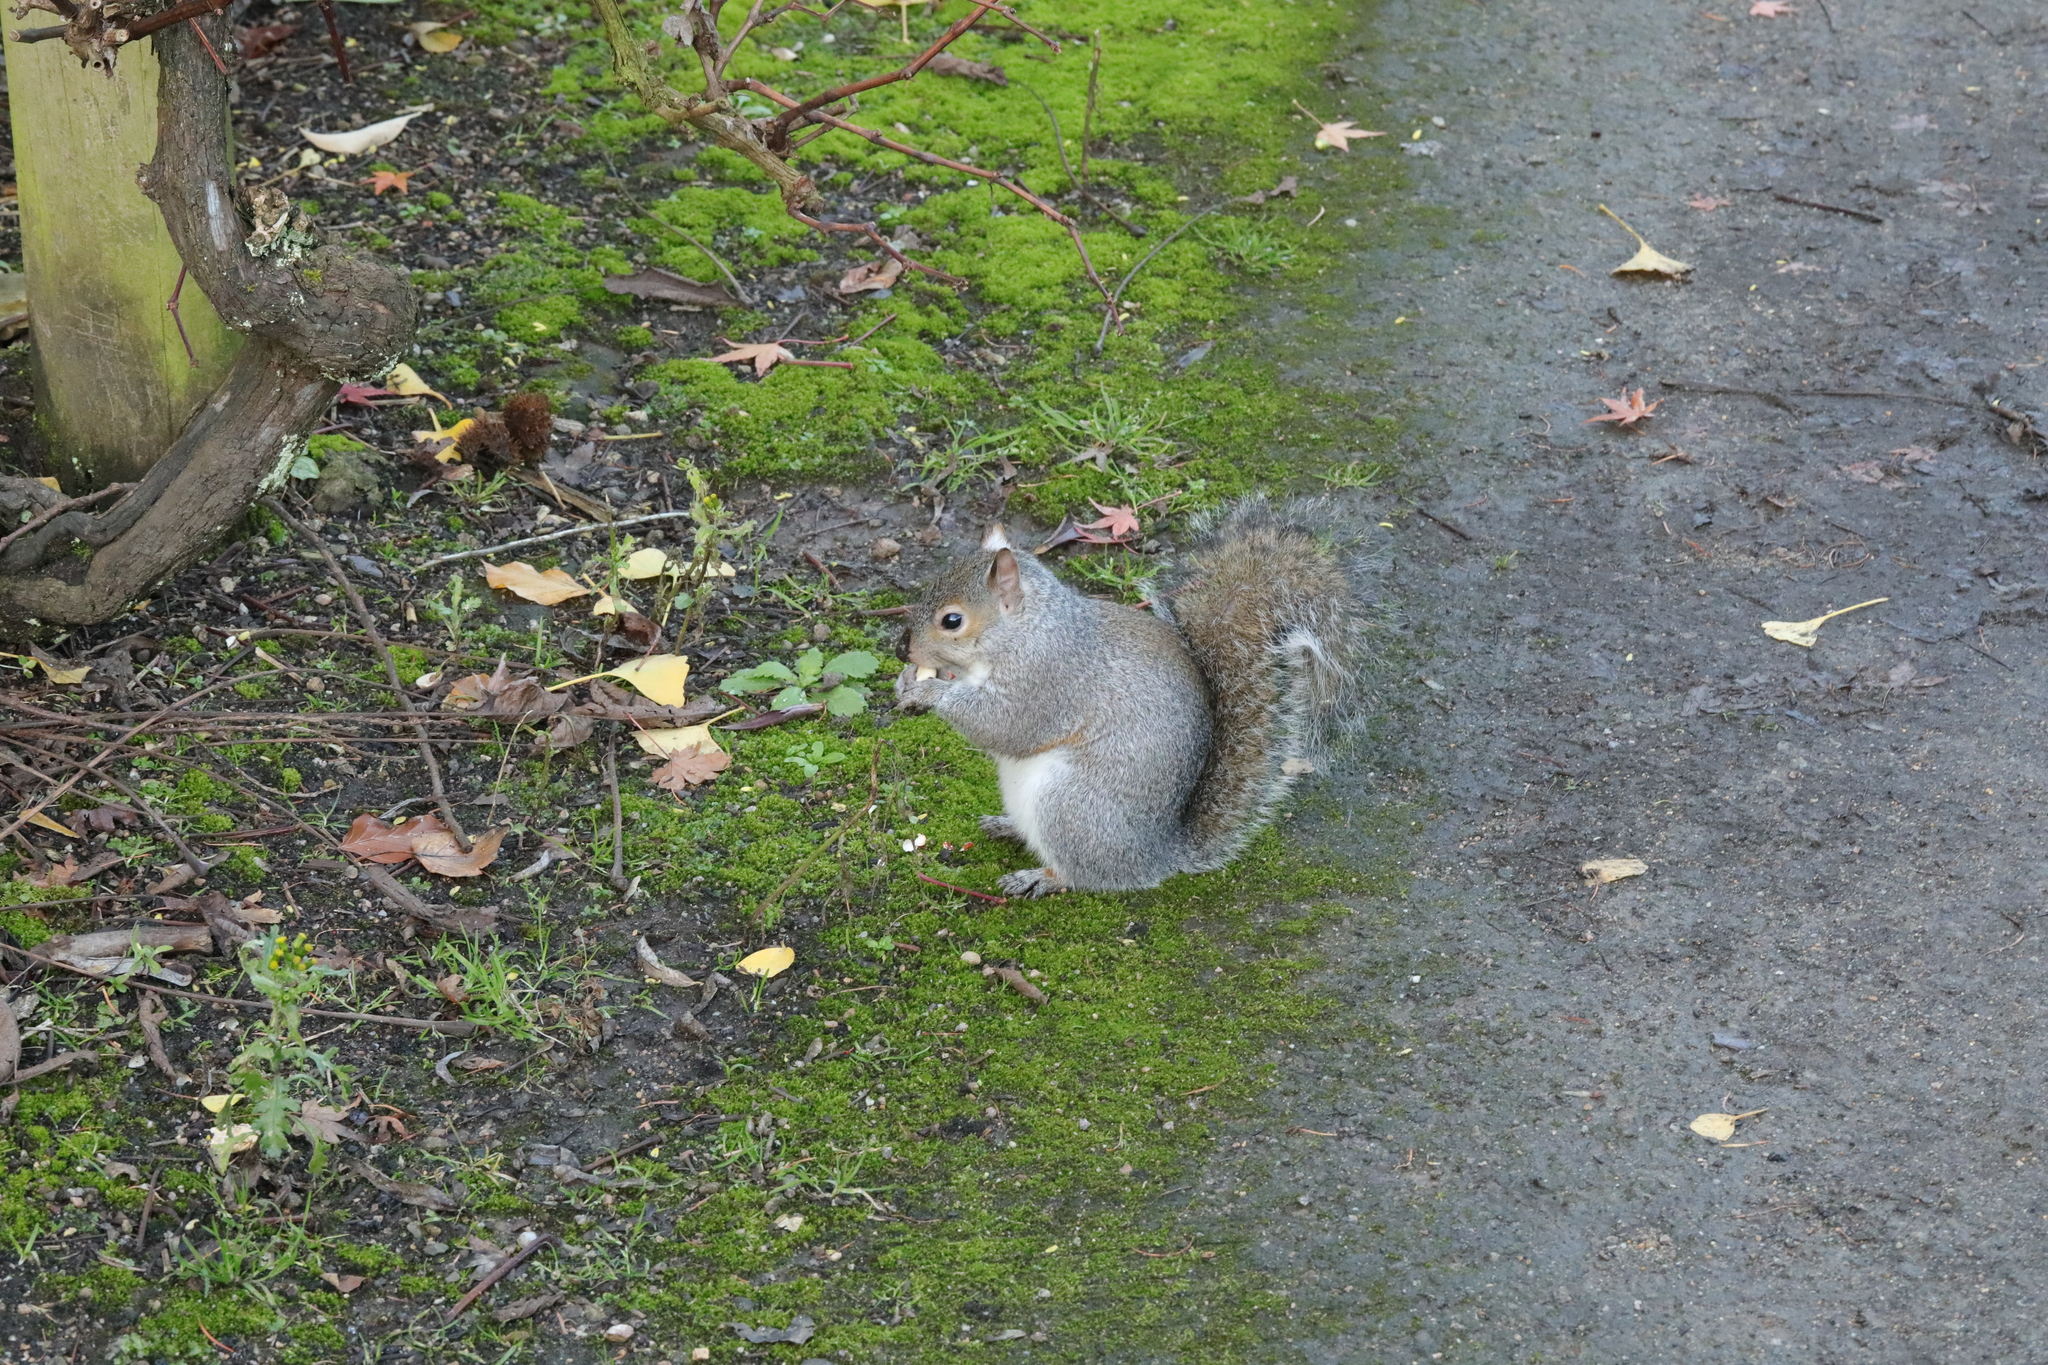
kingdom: Animalia
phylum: Chordata
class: Mammalia
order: Rodentia
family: Sciuridae
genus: Sciurus
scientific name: Sciurus carolinensis
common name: Eastern gray squirrel
